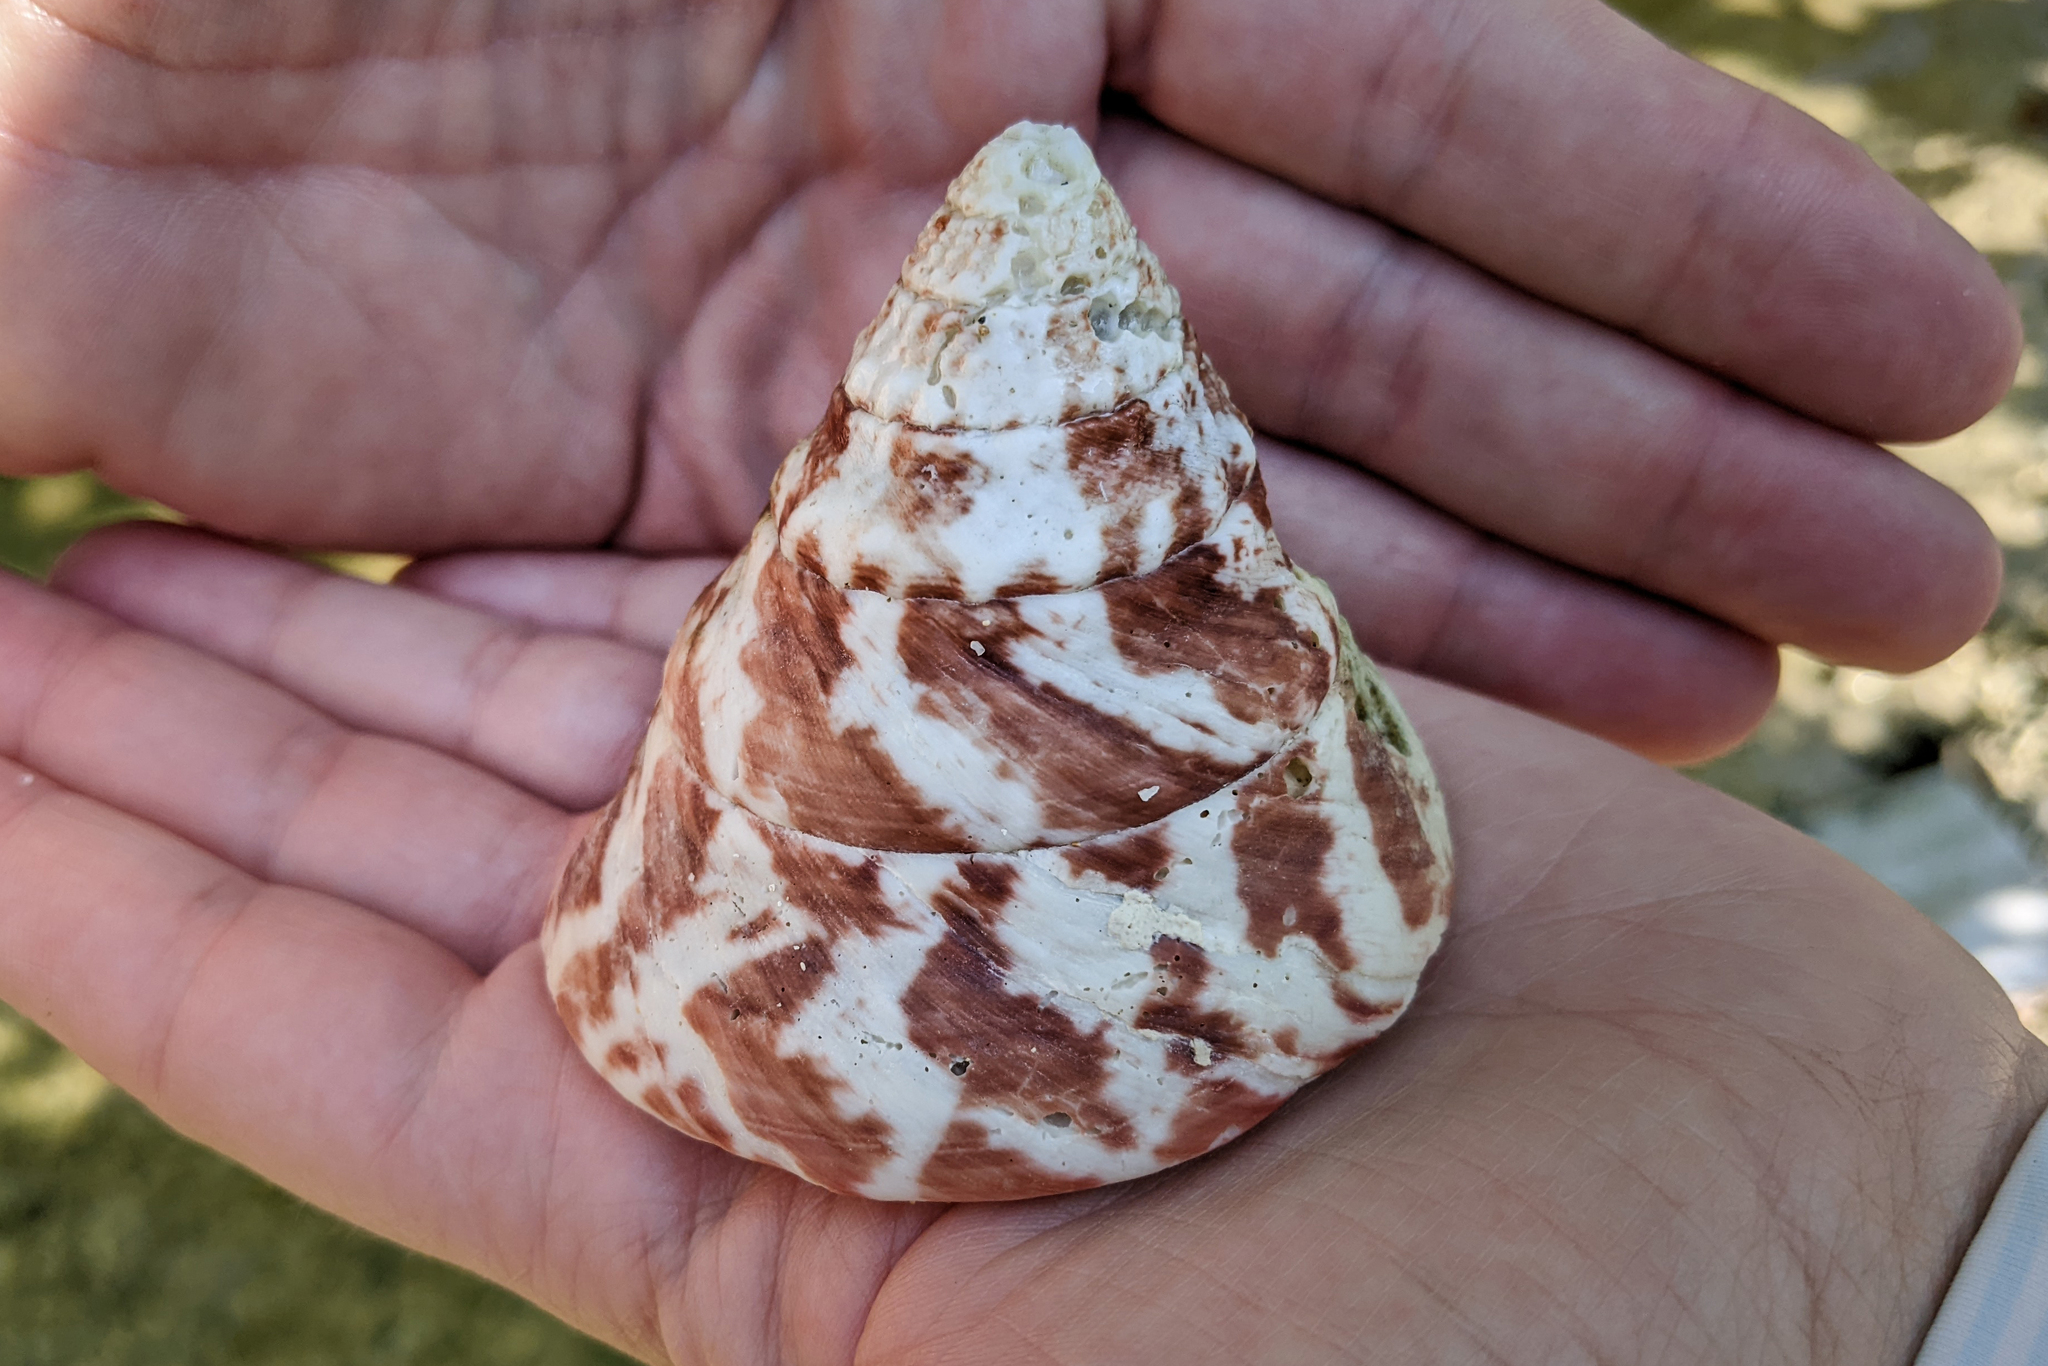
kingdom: Animalia
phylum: Mollusca
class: Gastropoda
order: Trochida
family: Tegulidae
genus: Rochia
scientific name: Rochia nilotica
